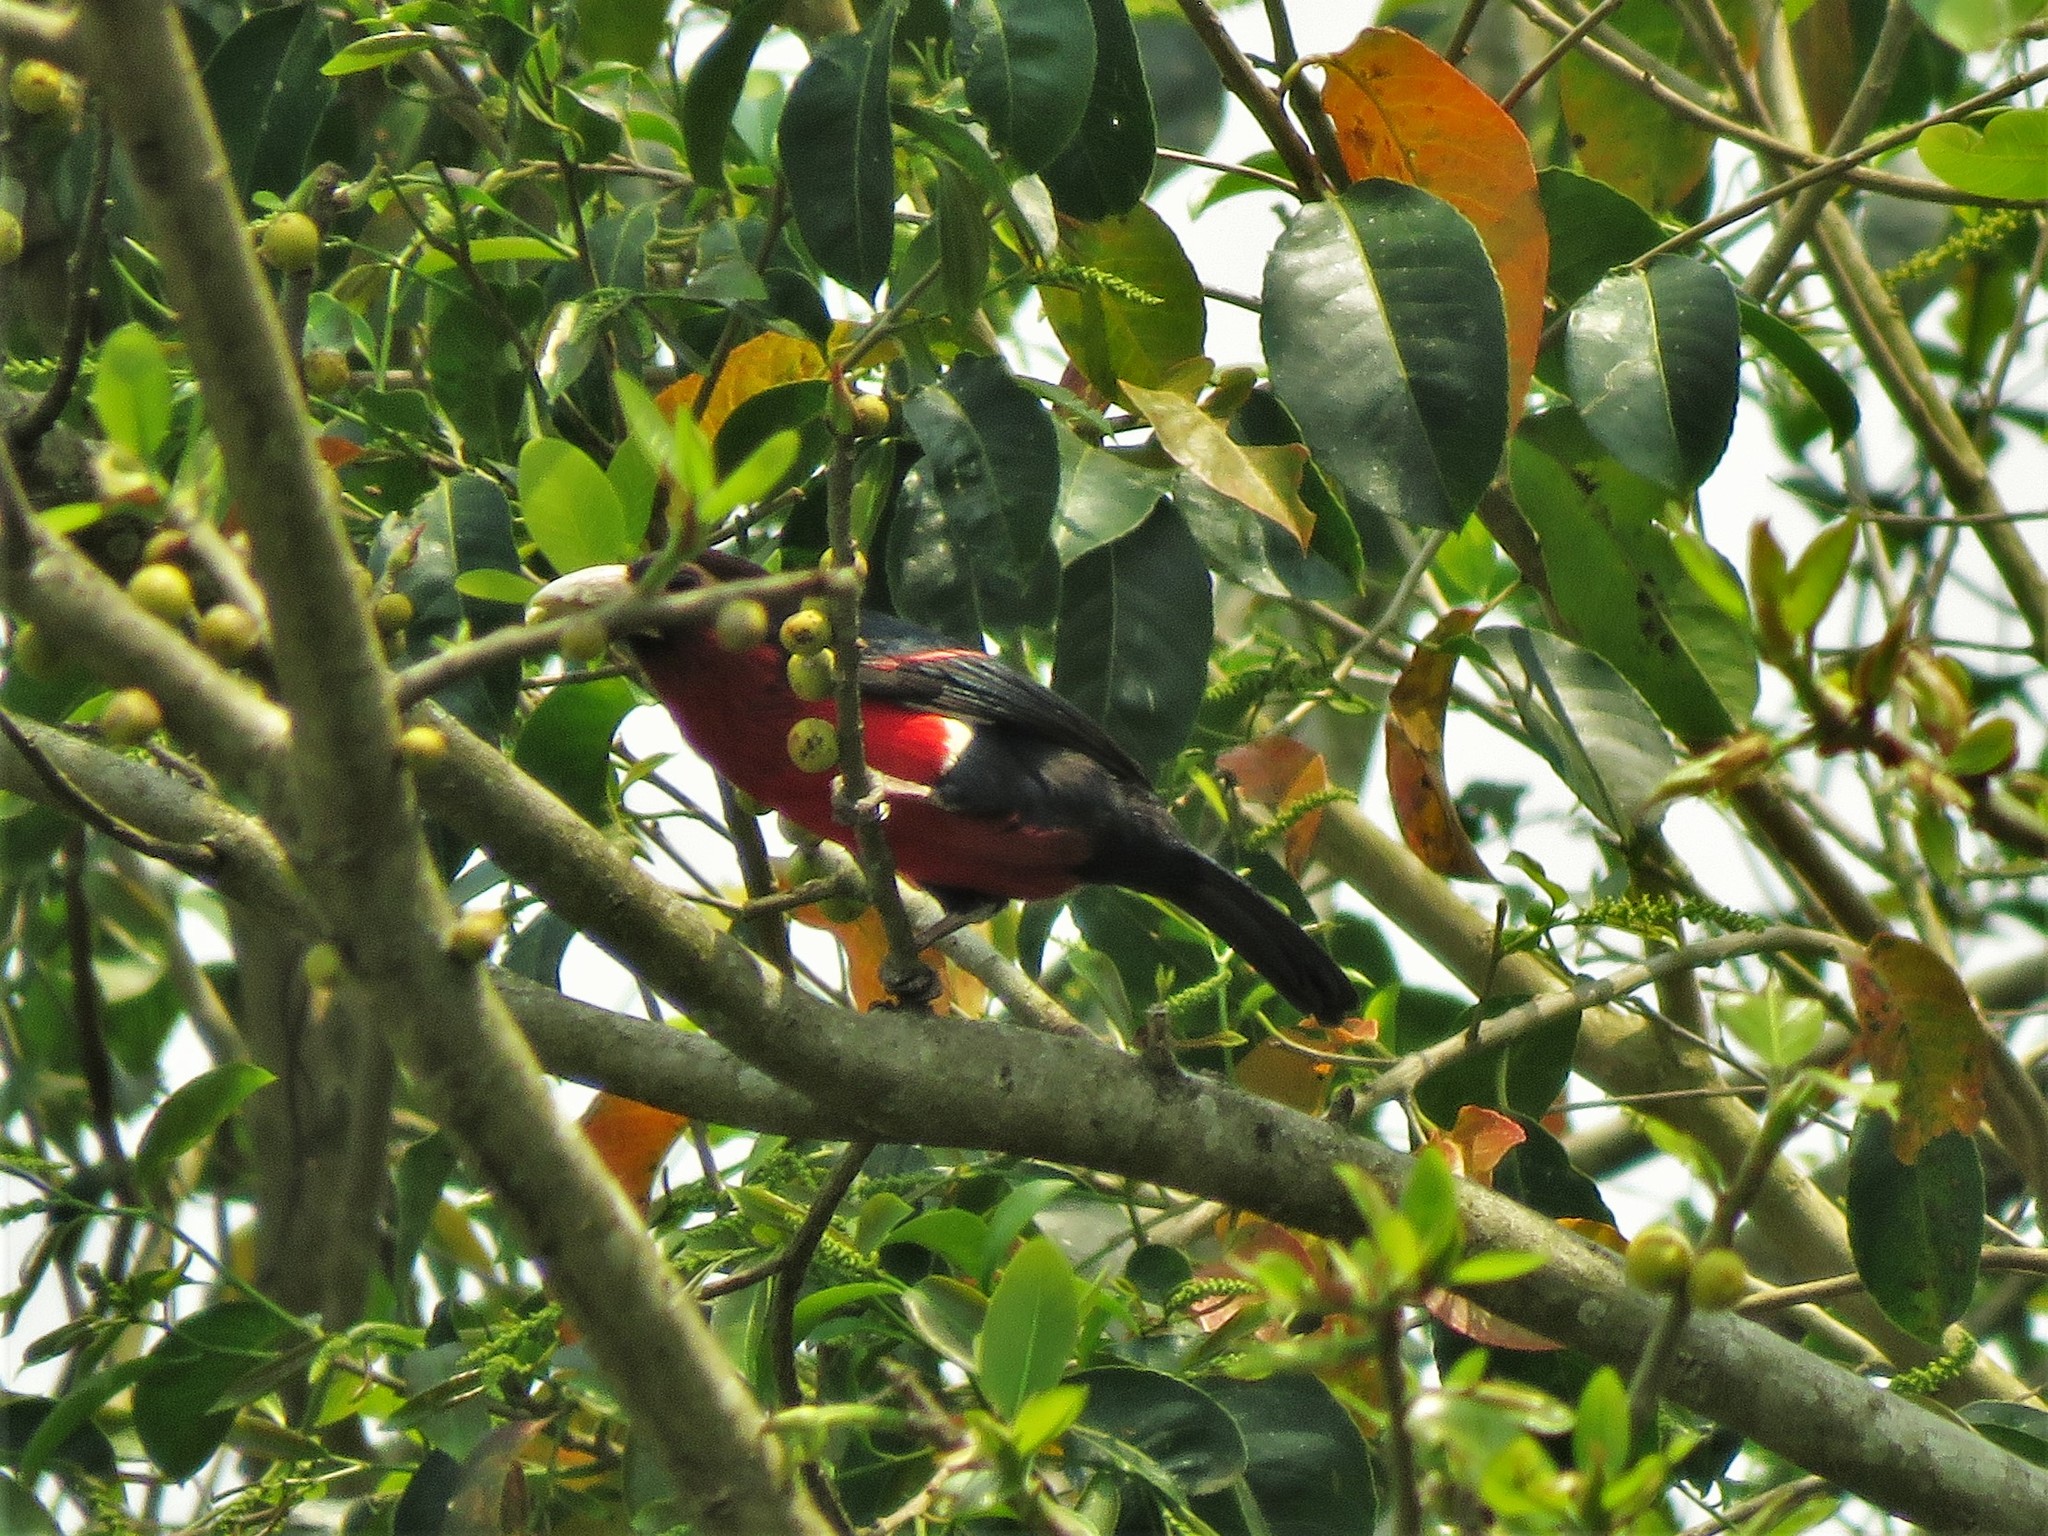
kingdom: Animalia
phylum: Chordata
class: Aves
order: Piciformes
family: Lybiidae
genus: Lybius
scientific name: Lybius bidentatus
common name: Double-toothed barbet
